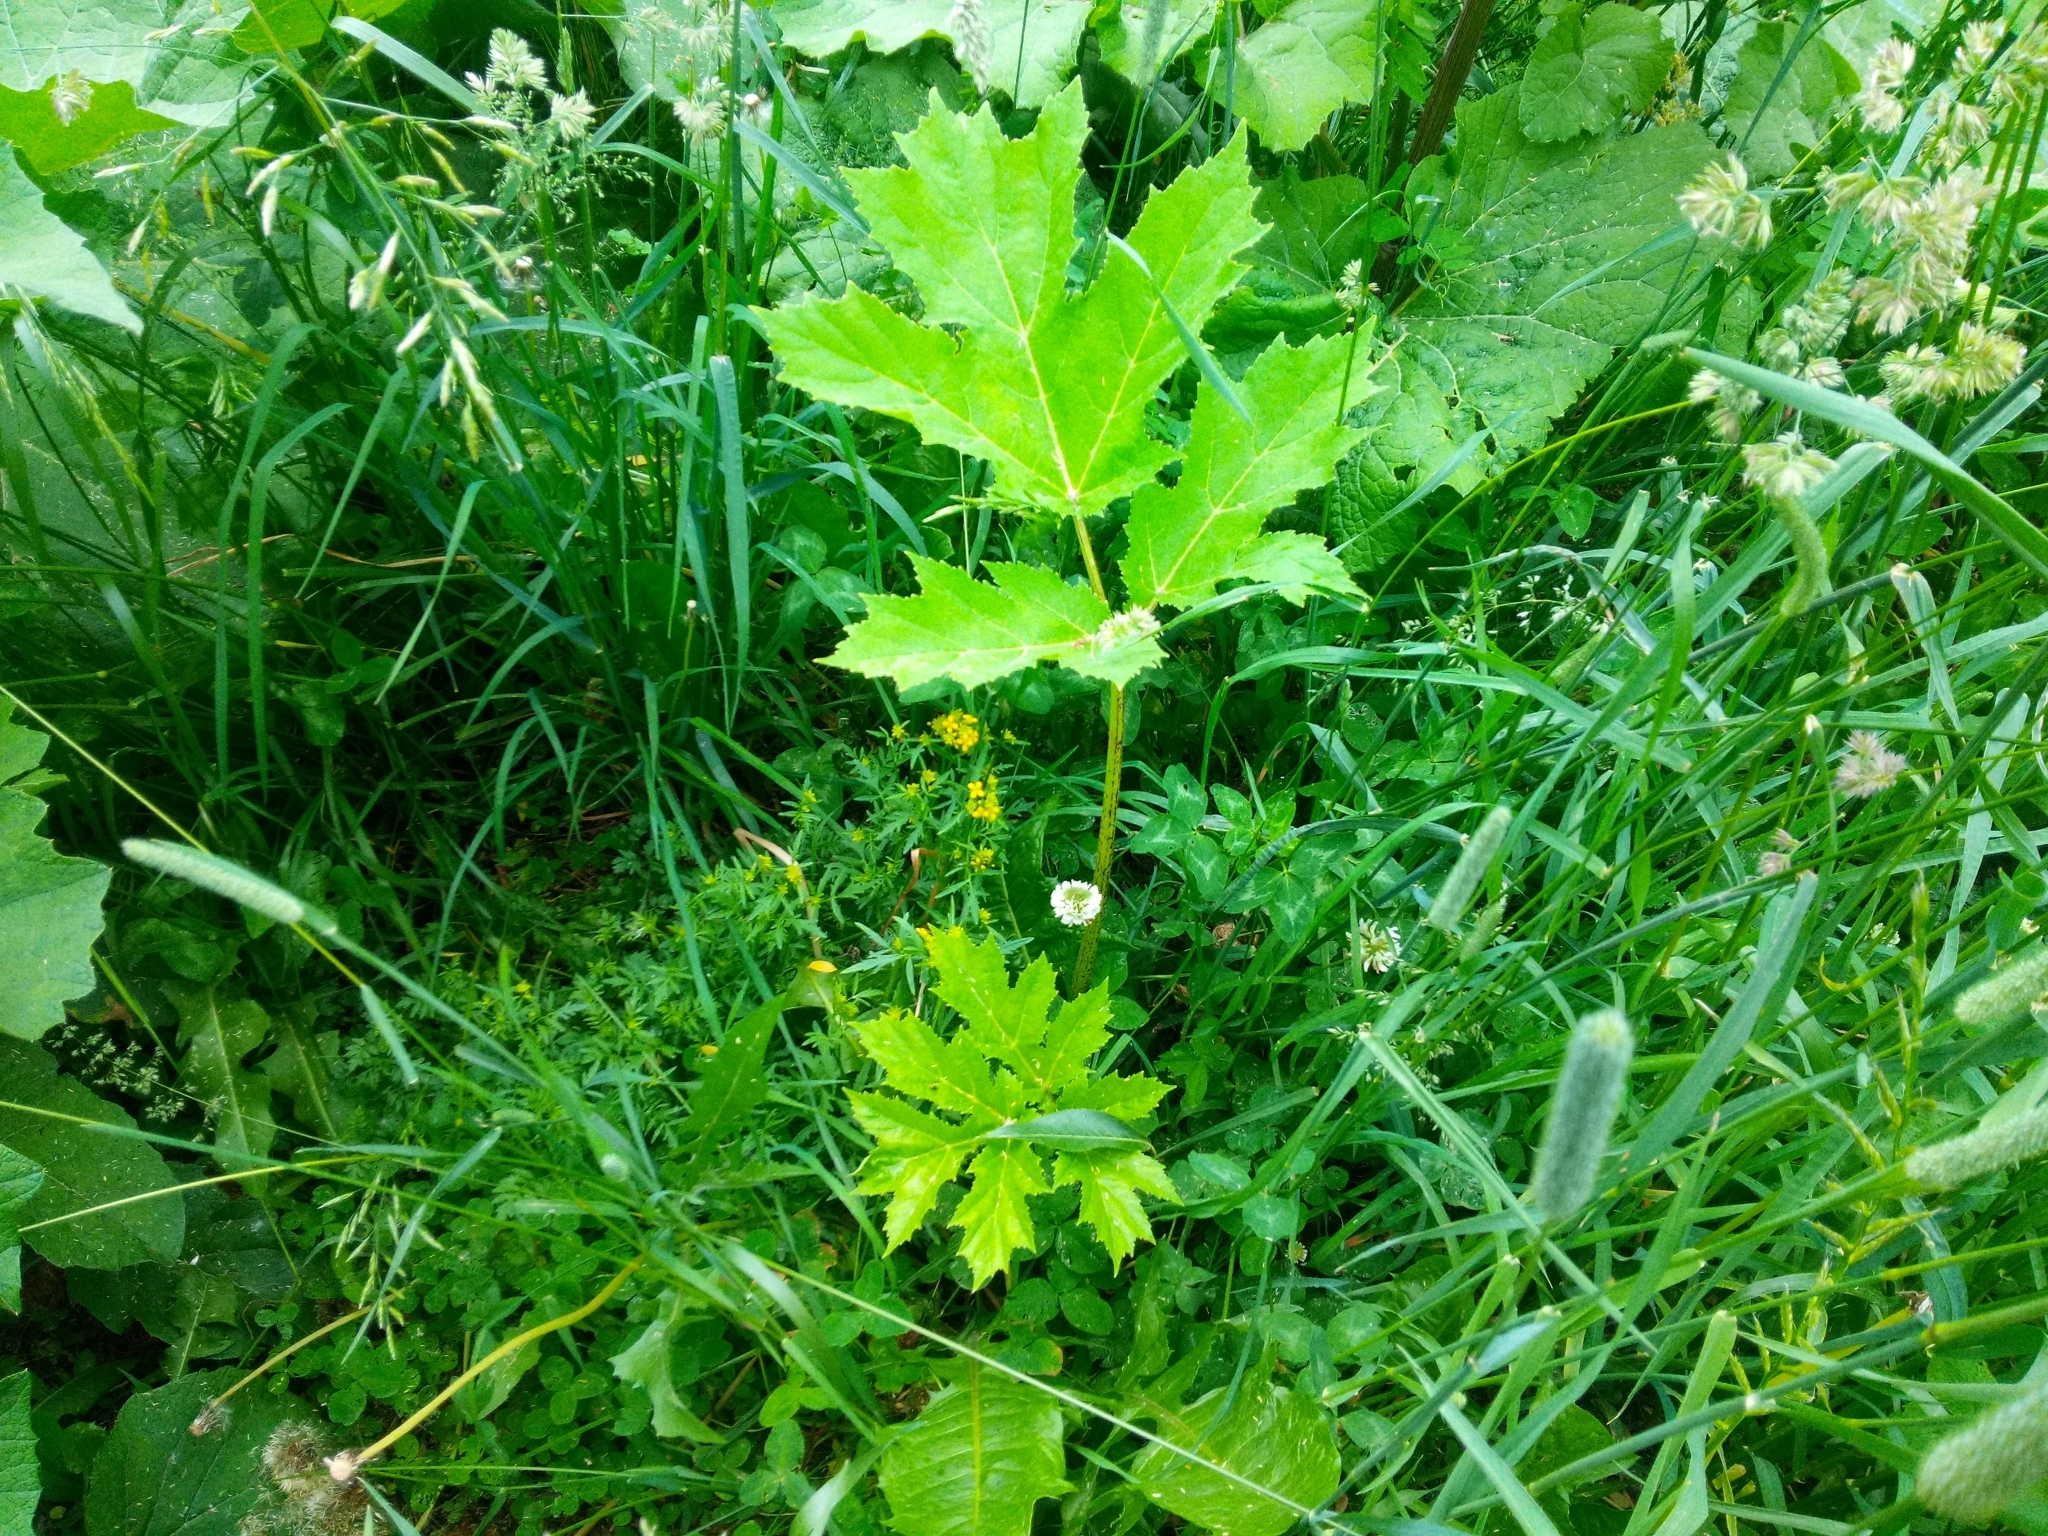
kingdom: Plantae
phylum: Tracheophyta
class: Magnoliopsida
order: Apiales
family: Apiaceae
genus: Heracleum
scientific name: Heracleum sosnowskyi
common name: Sosnowsky's hogweed
